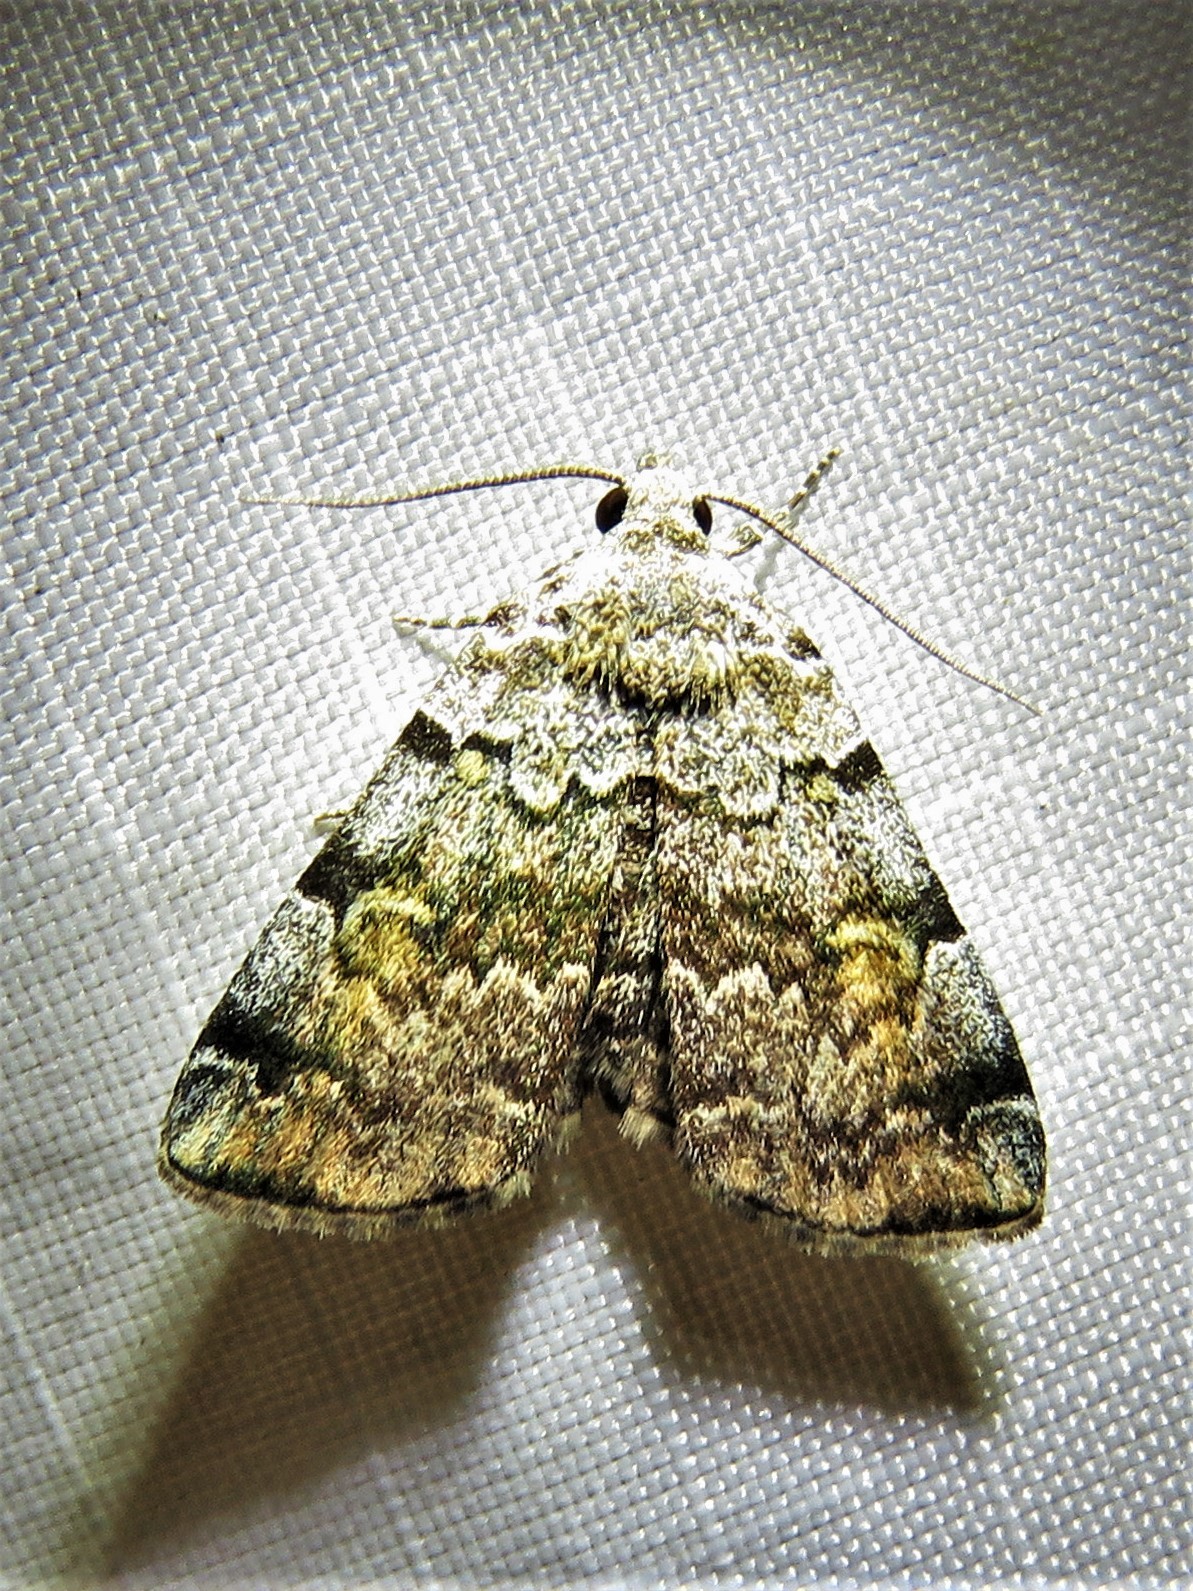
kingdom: Animalia
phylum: Arthropoda
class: Insecta
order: Lepidoptera
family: Erebidae
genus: Idia
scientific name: Idia americalis
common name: American idia moth
